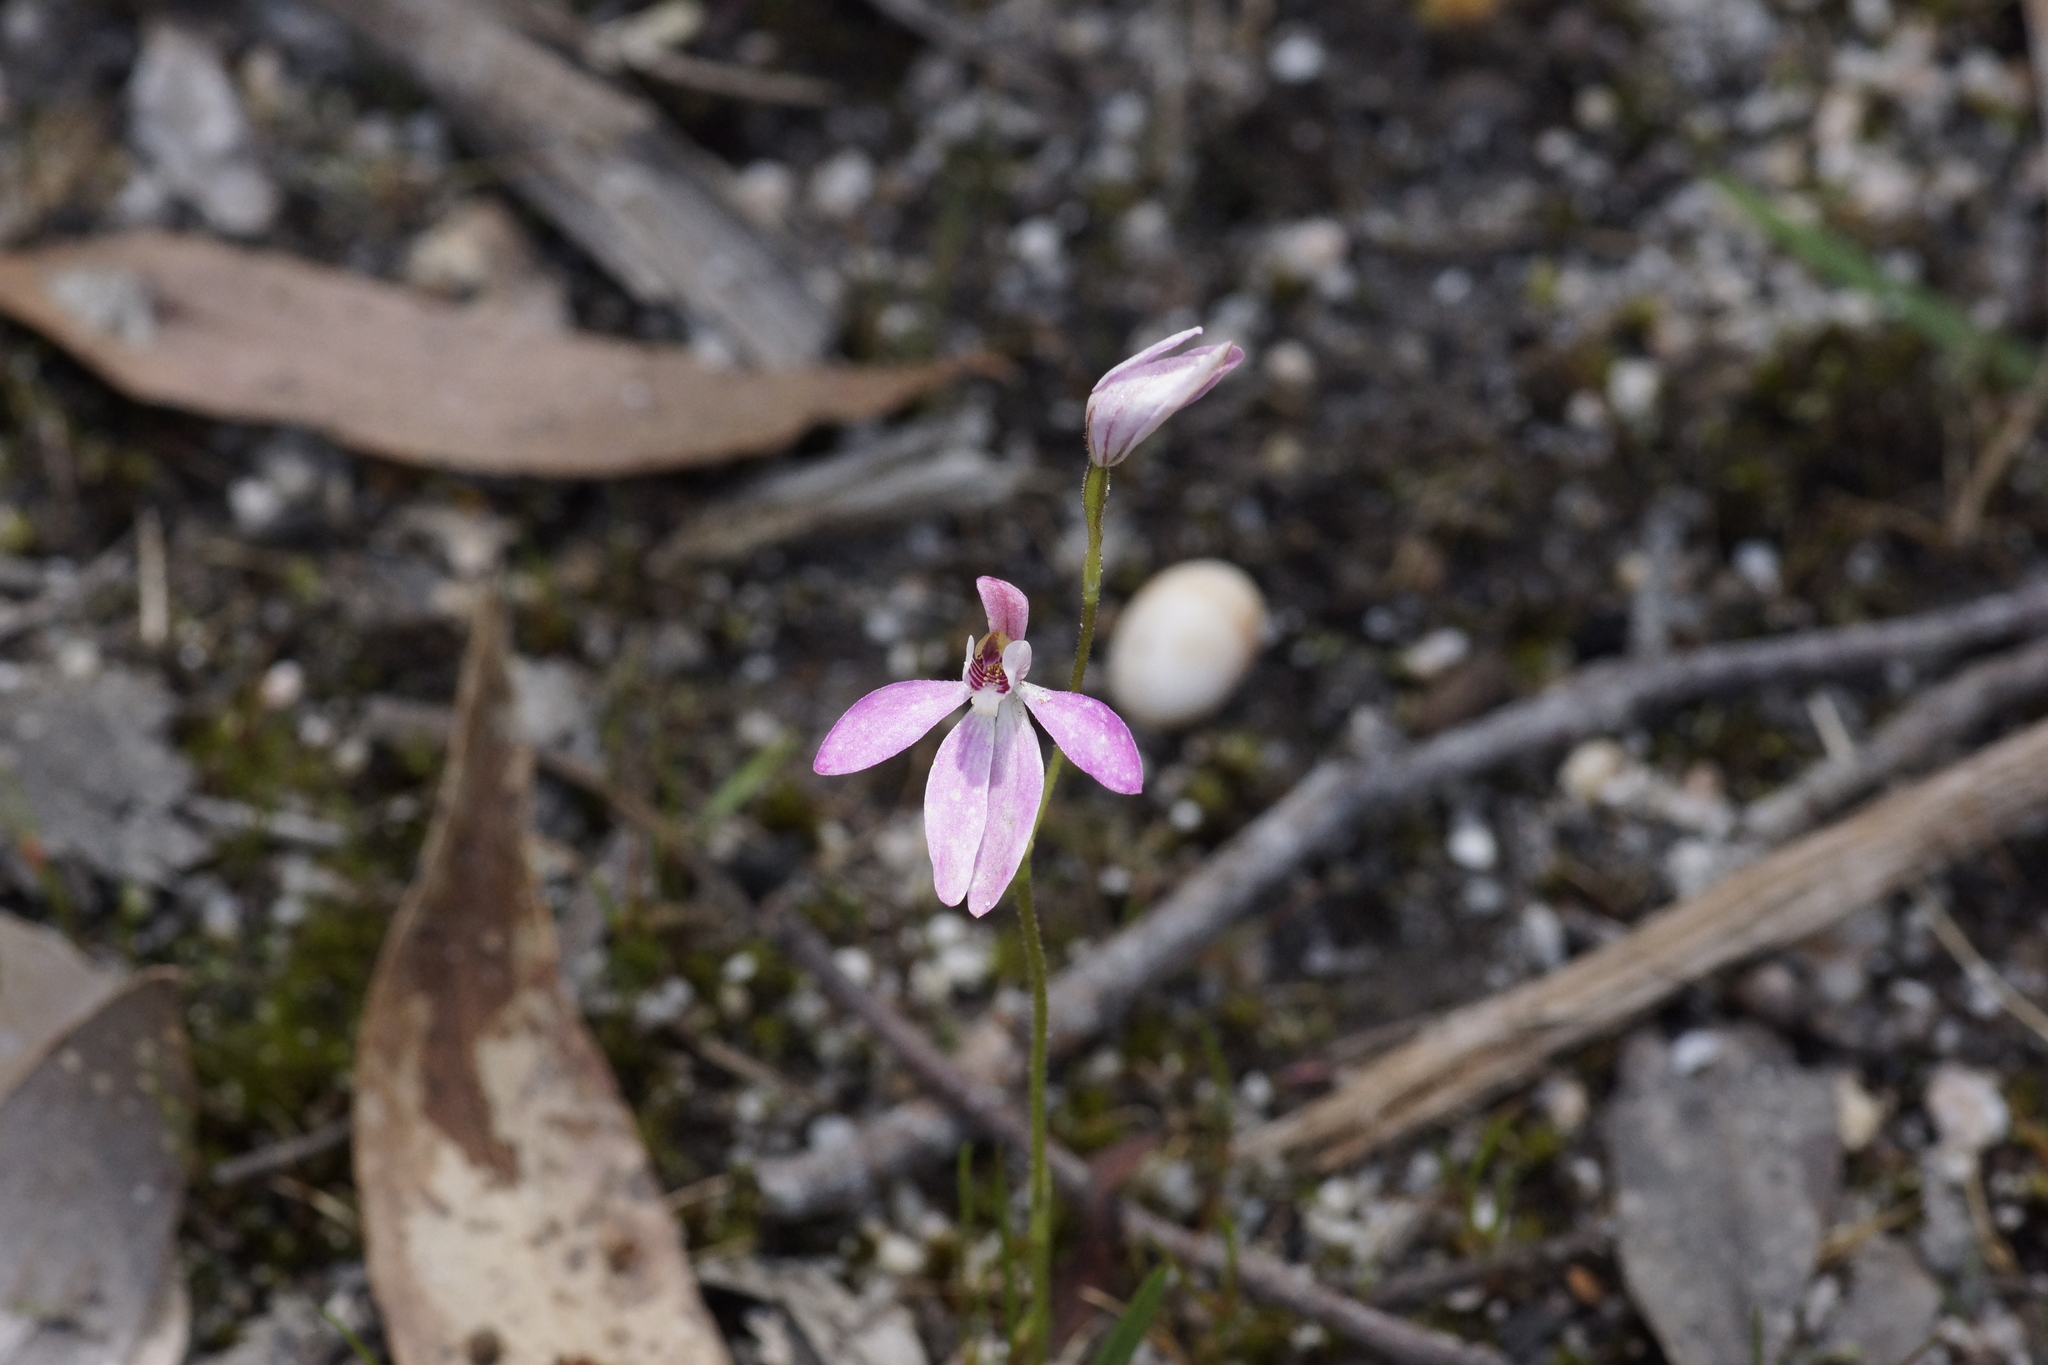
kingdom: Plantae
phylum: Tracheophyta
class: Liliopsida
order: Asparagales
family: Orchidaceae
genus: Caladenia
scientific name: Caladenia carnea
